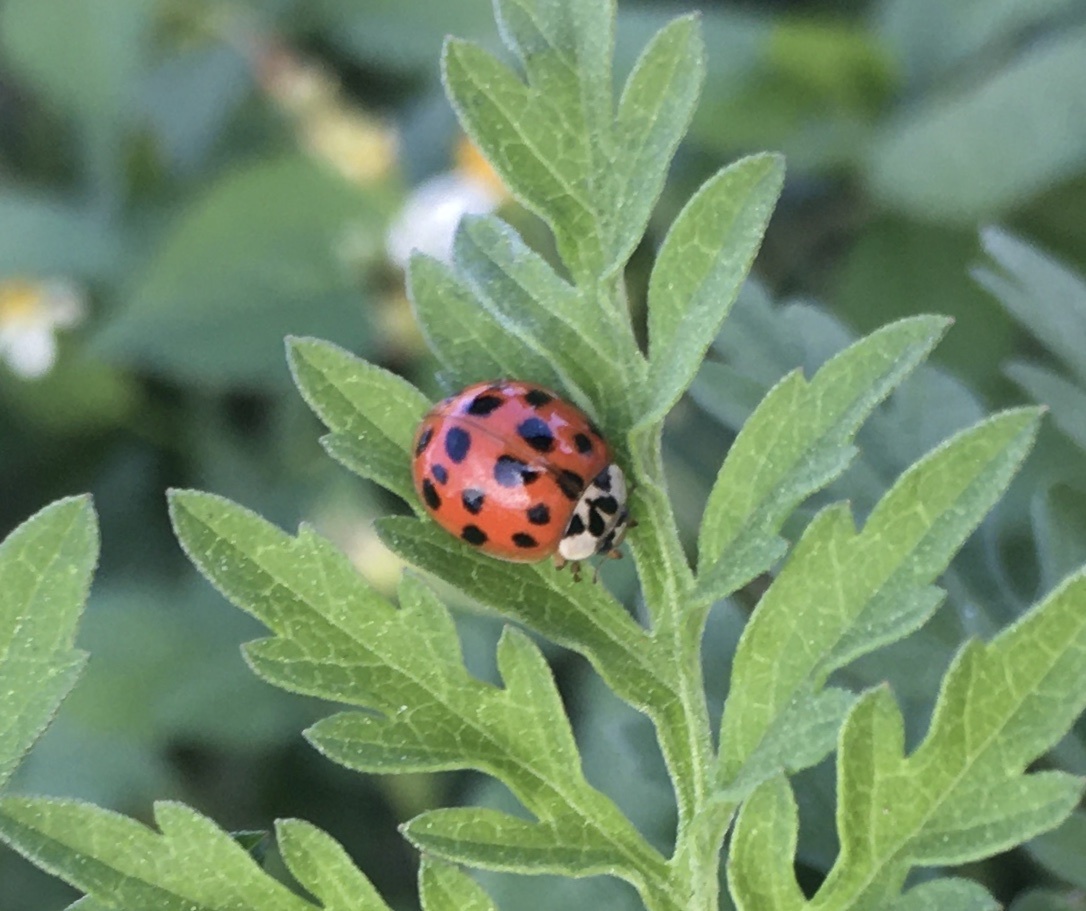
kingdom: Animalia
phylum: Arthropoda
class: Insecta
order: Coleoptera
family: Coccinellidae
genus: Harmonia
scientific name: Harmonia axyridis
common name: Harlequin ladybird
